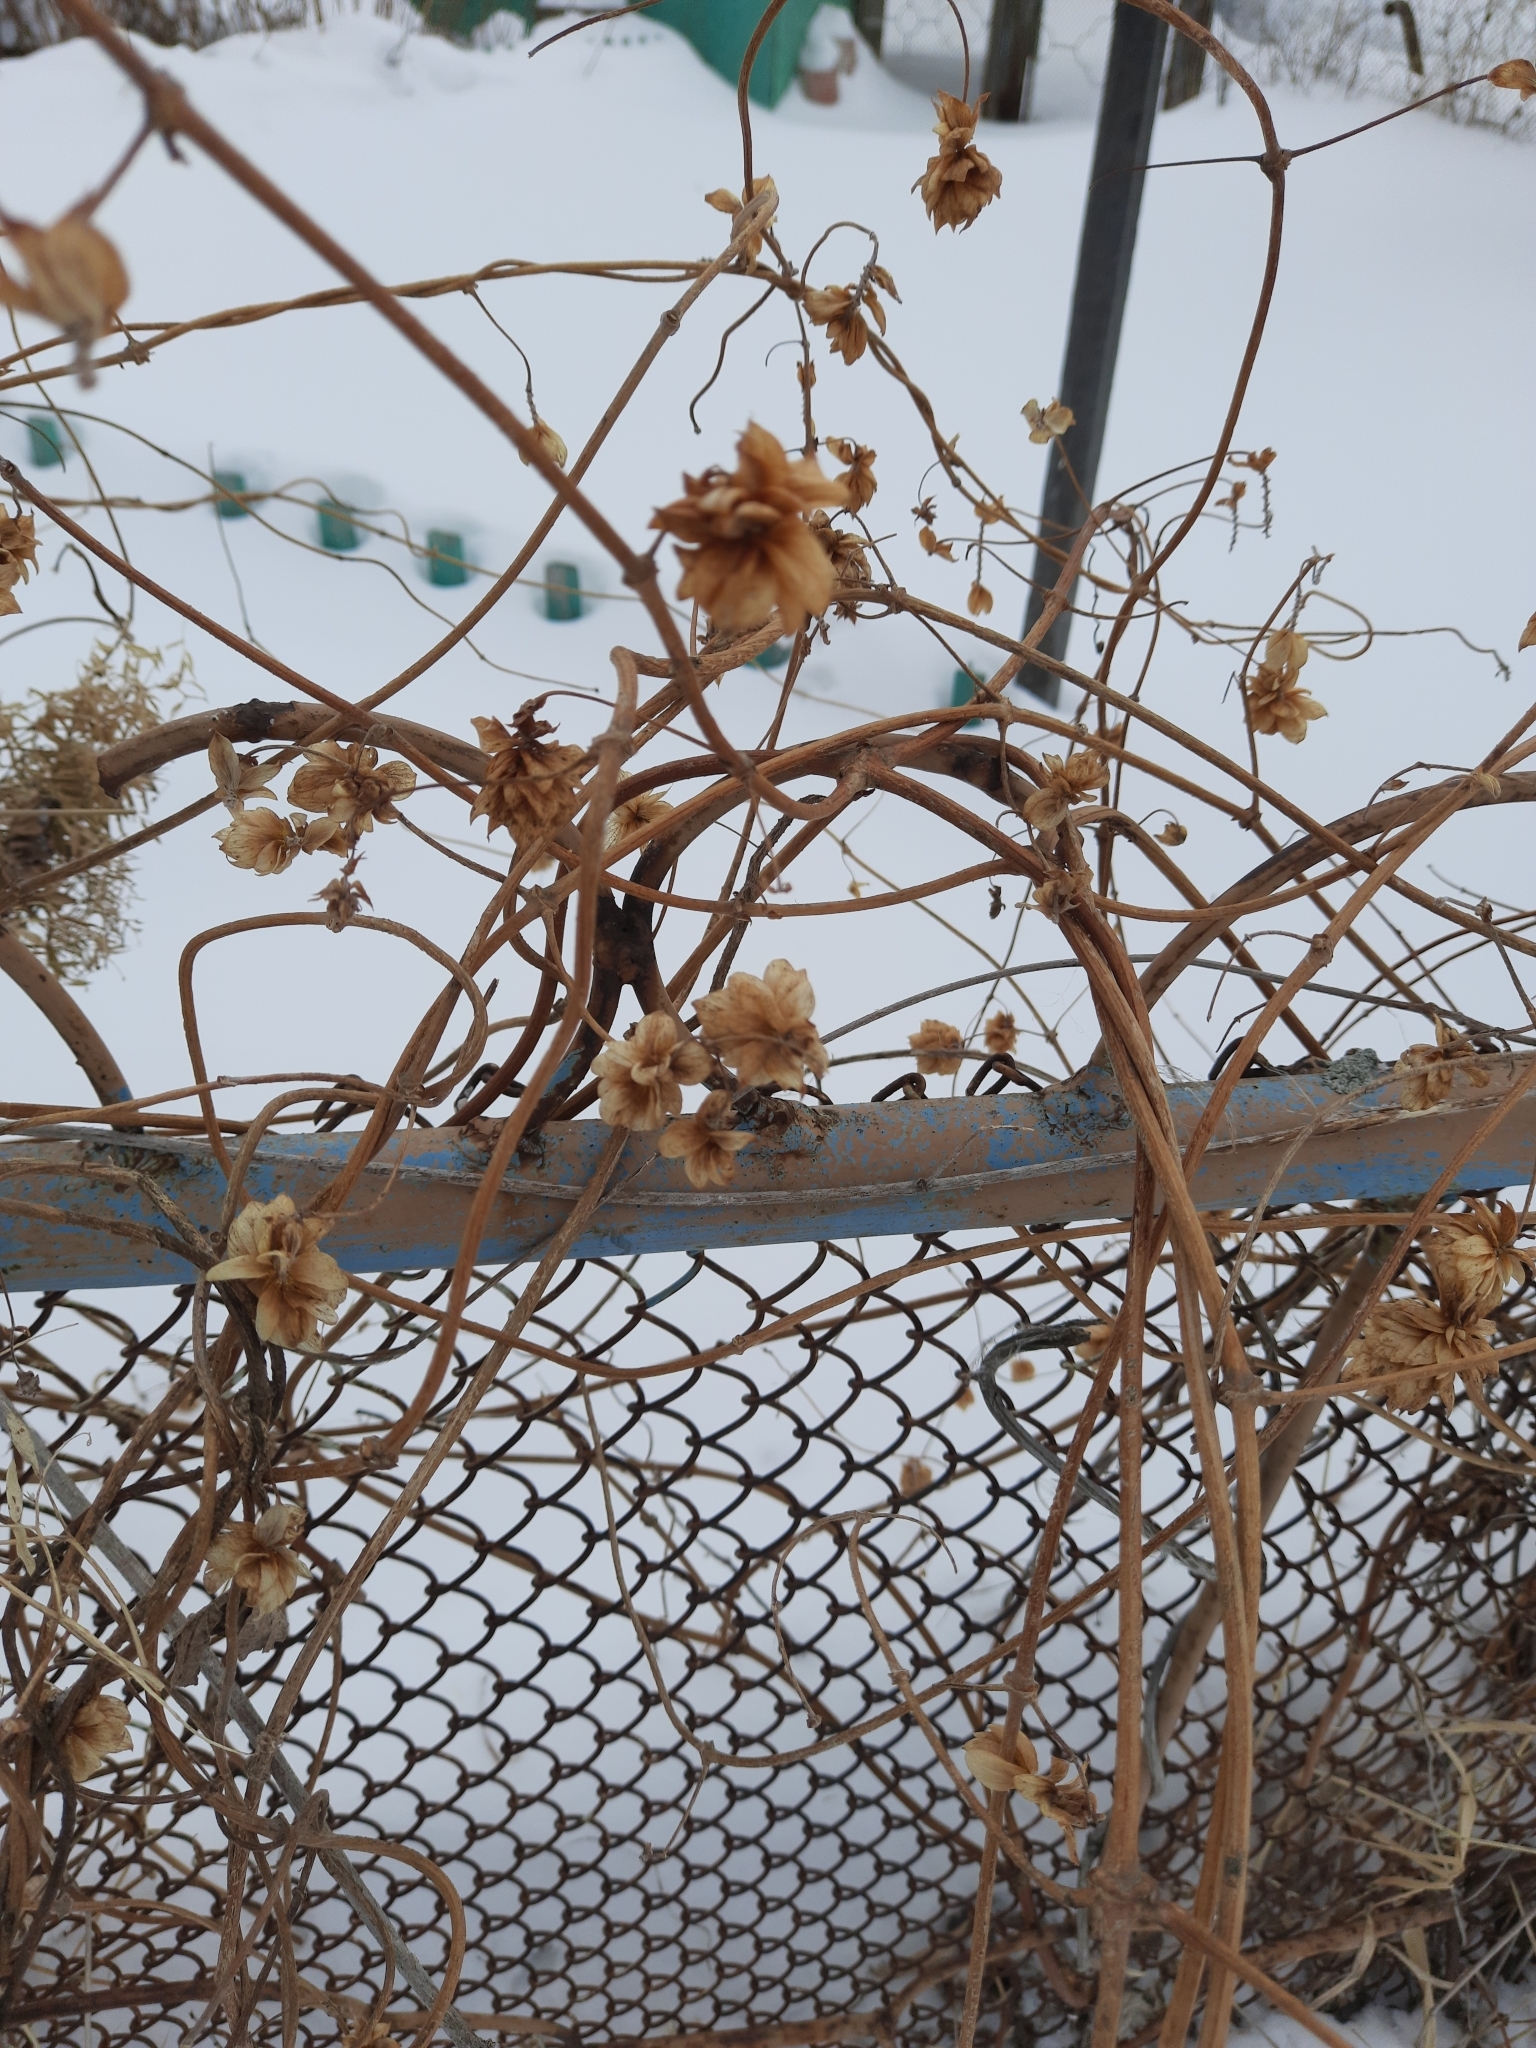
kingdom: Plantae
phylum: Tracheophyta
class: Magnoliopsida
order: Rosales
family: Cannabaceae
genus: Humulus
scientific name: Humulus lupulus
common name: Hop
